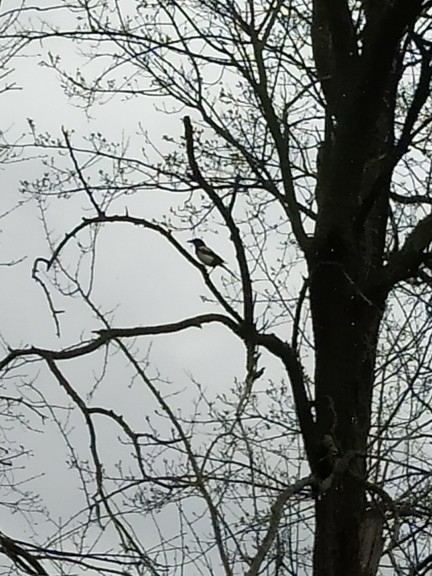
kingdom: Animalia
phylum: Chordata
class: Aves
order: Passeriformes
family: Corvidae
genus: Pica
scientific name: Pica pica
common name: Eurasian magpie
